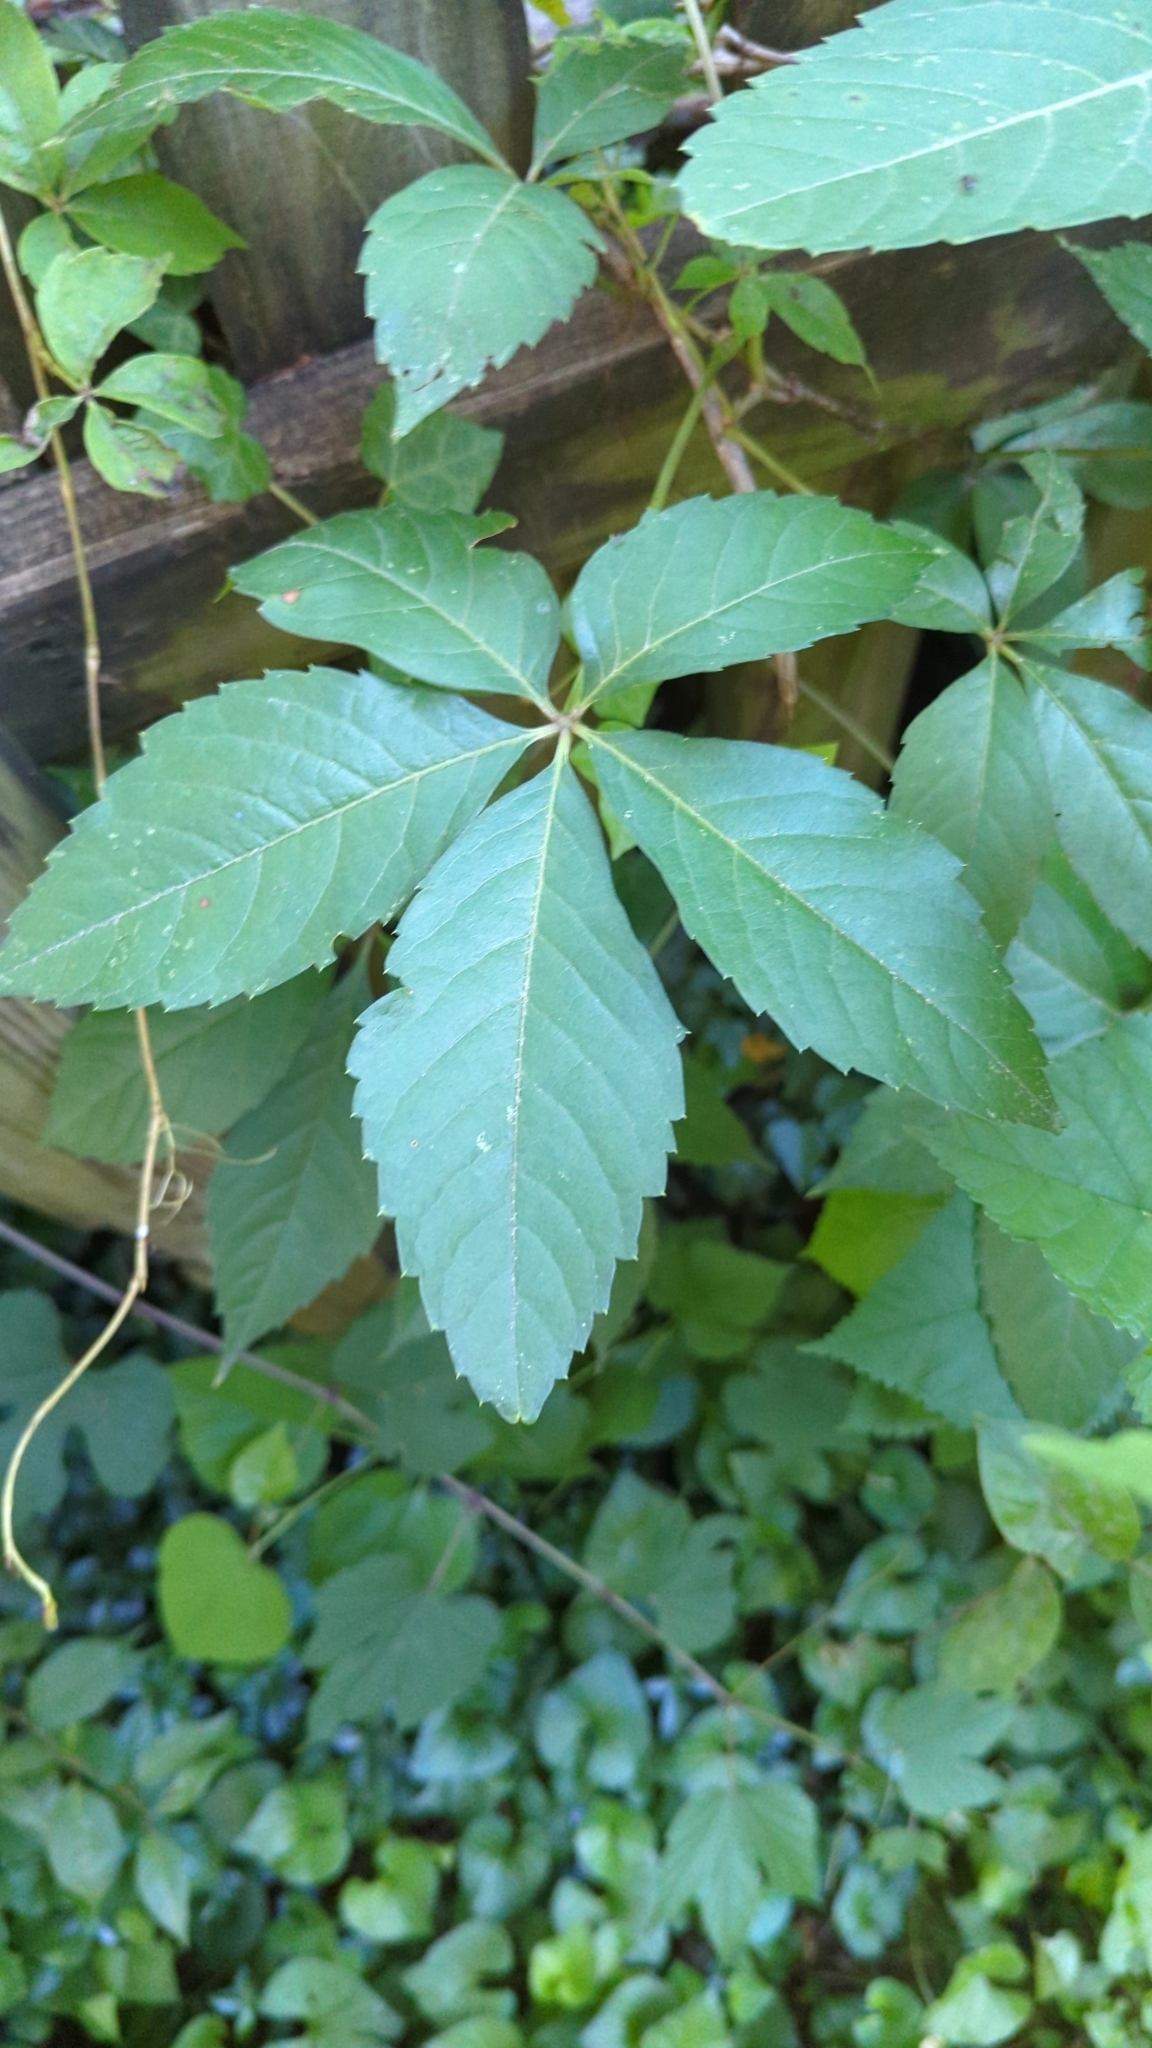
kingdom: Plantae
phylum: Tracheophyta
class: Magnoliopsida
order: Vitales
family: Vitaceae
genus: Parthenocissus
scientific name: Parthenocissus quinquefolia
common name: Virginia-creeper
